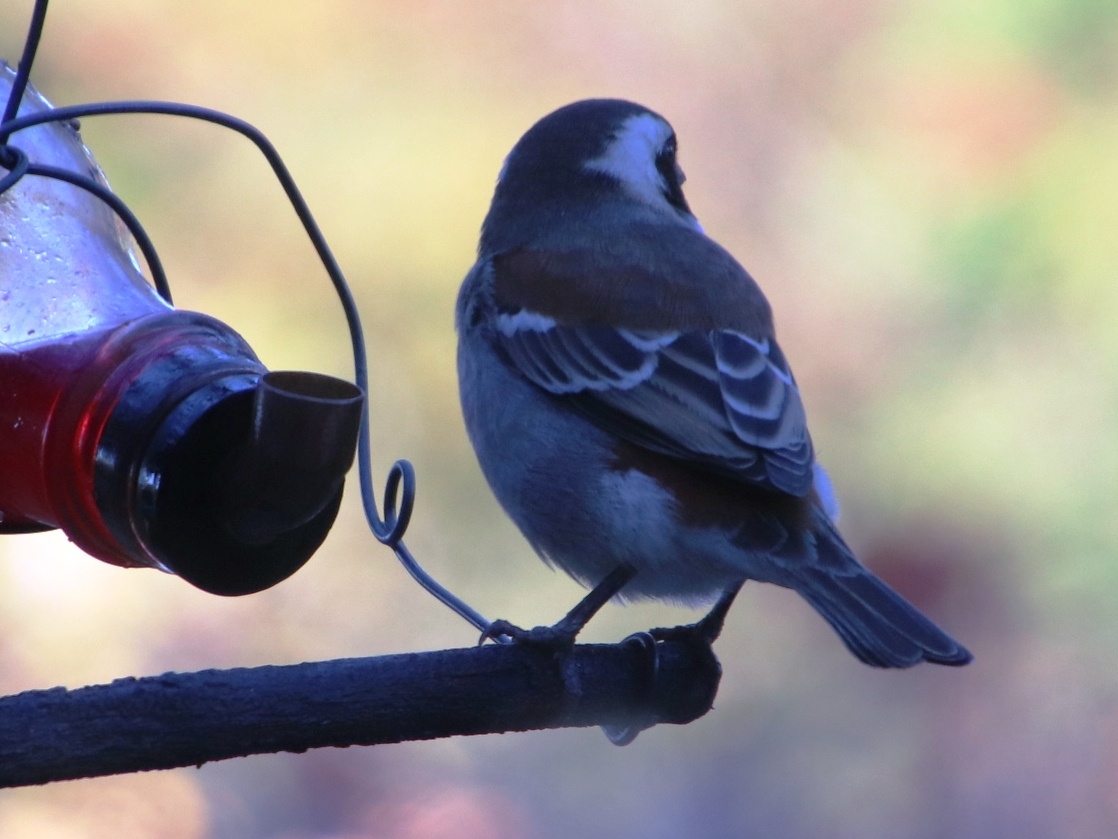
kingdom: Animalia
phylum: Chordata
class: Aves
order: Passeriformes
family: Passeridae
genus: Passer
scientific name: Passer melanurus
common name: Cape sparrow
